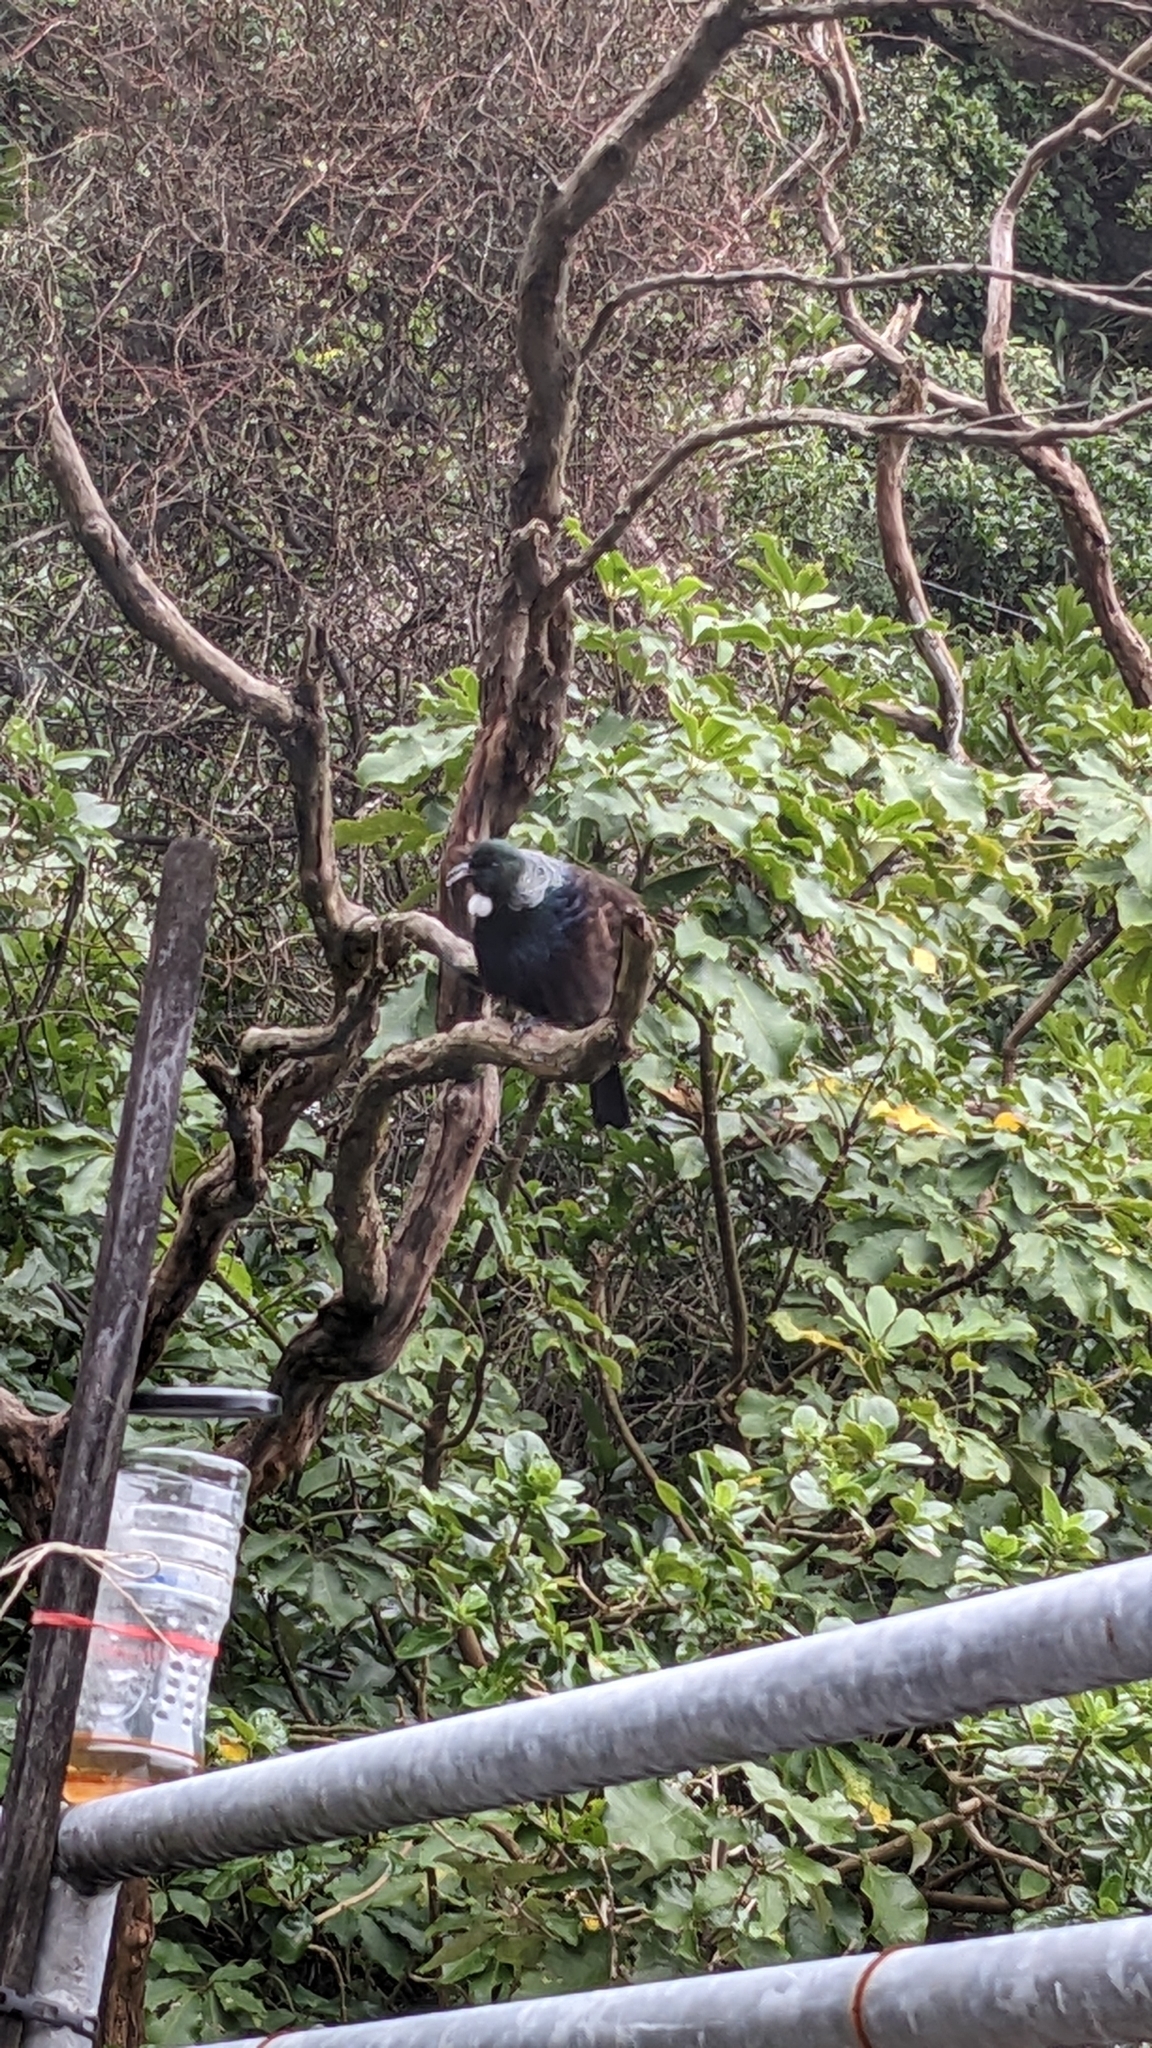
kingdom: Animalia
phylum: Chordata
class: Aves
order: Passeriformes
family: Meliphagidae
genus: Prosthemadera
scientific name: Prosthemadera novaeseelandiae
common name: Tui
